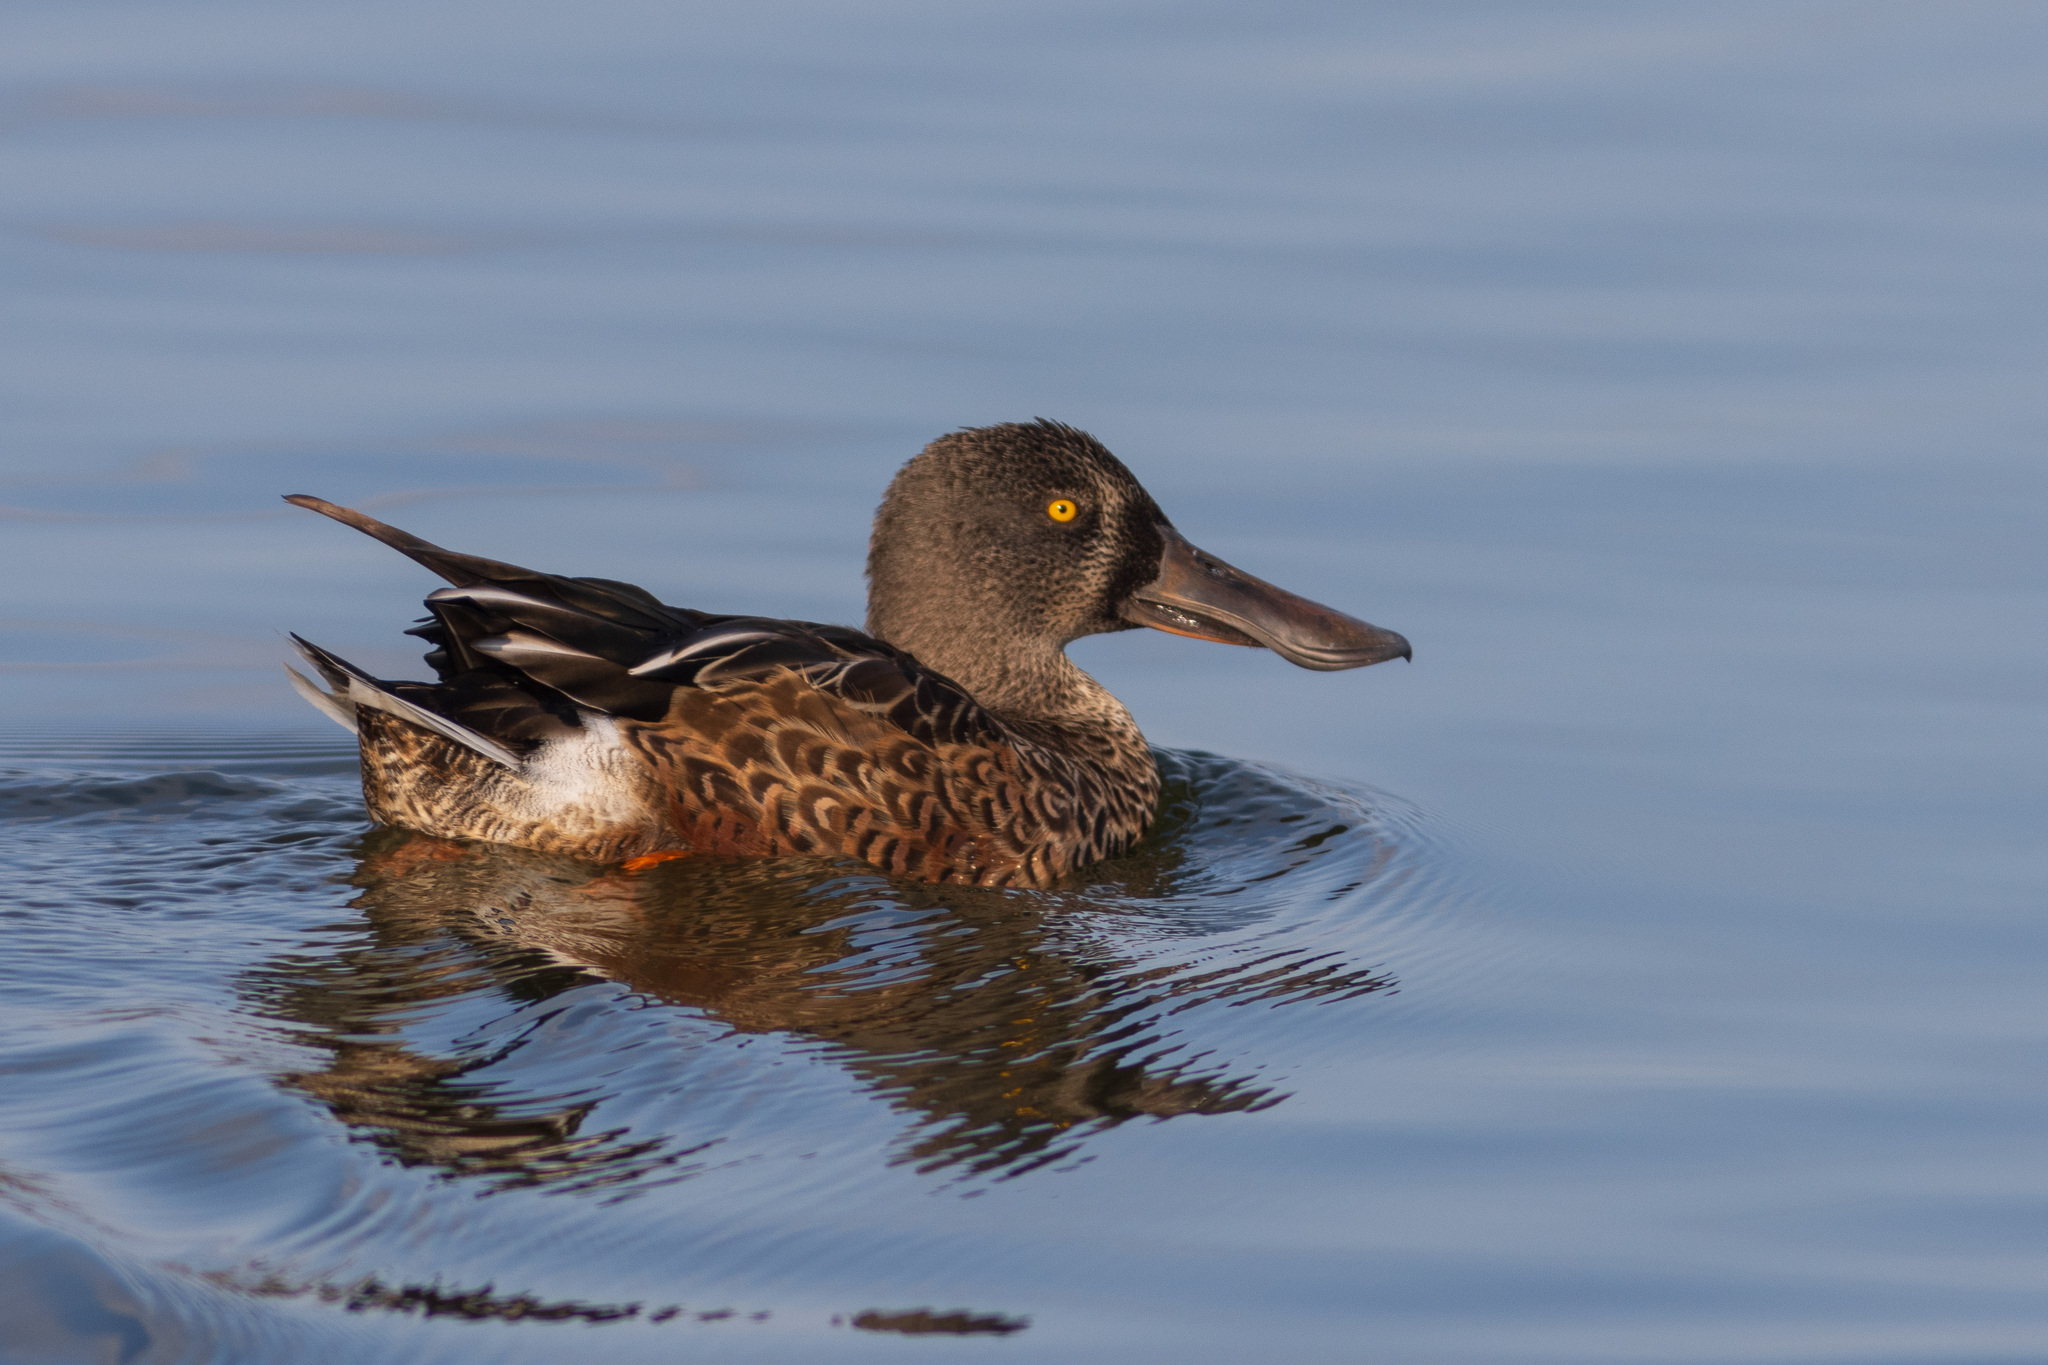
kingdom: Animalia
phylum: Chordata
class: Aves
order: Anseriformes
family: Anatidae
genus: Spatula
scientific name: Spatula clypeata
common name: Northern shoveler
